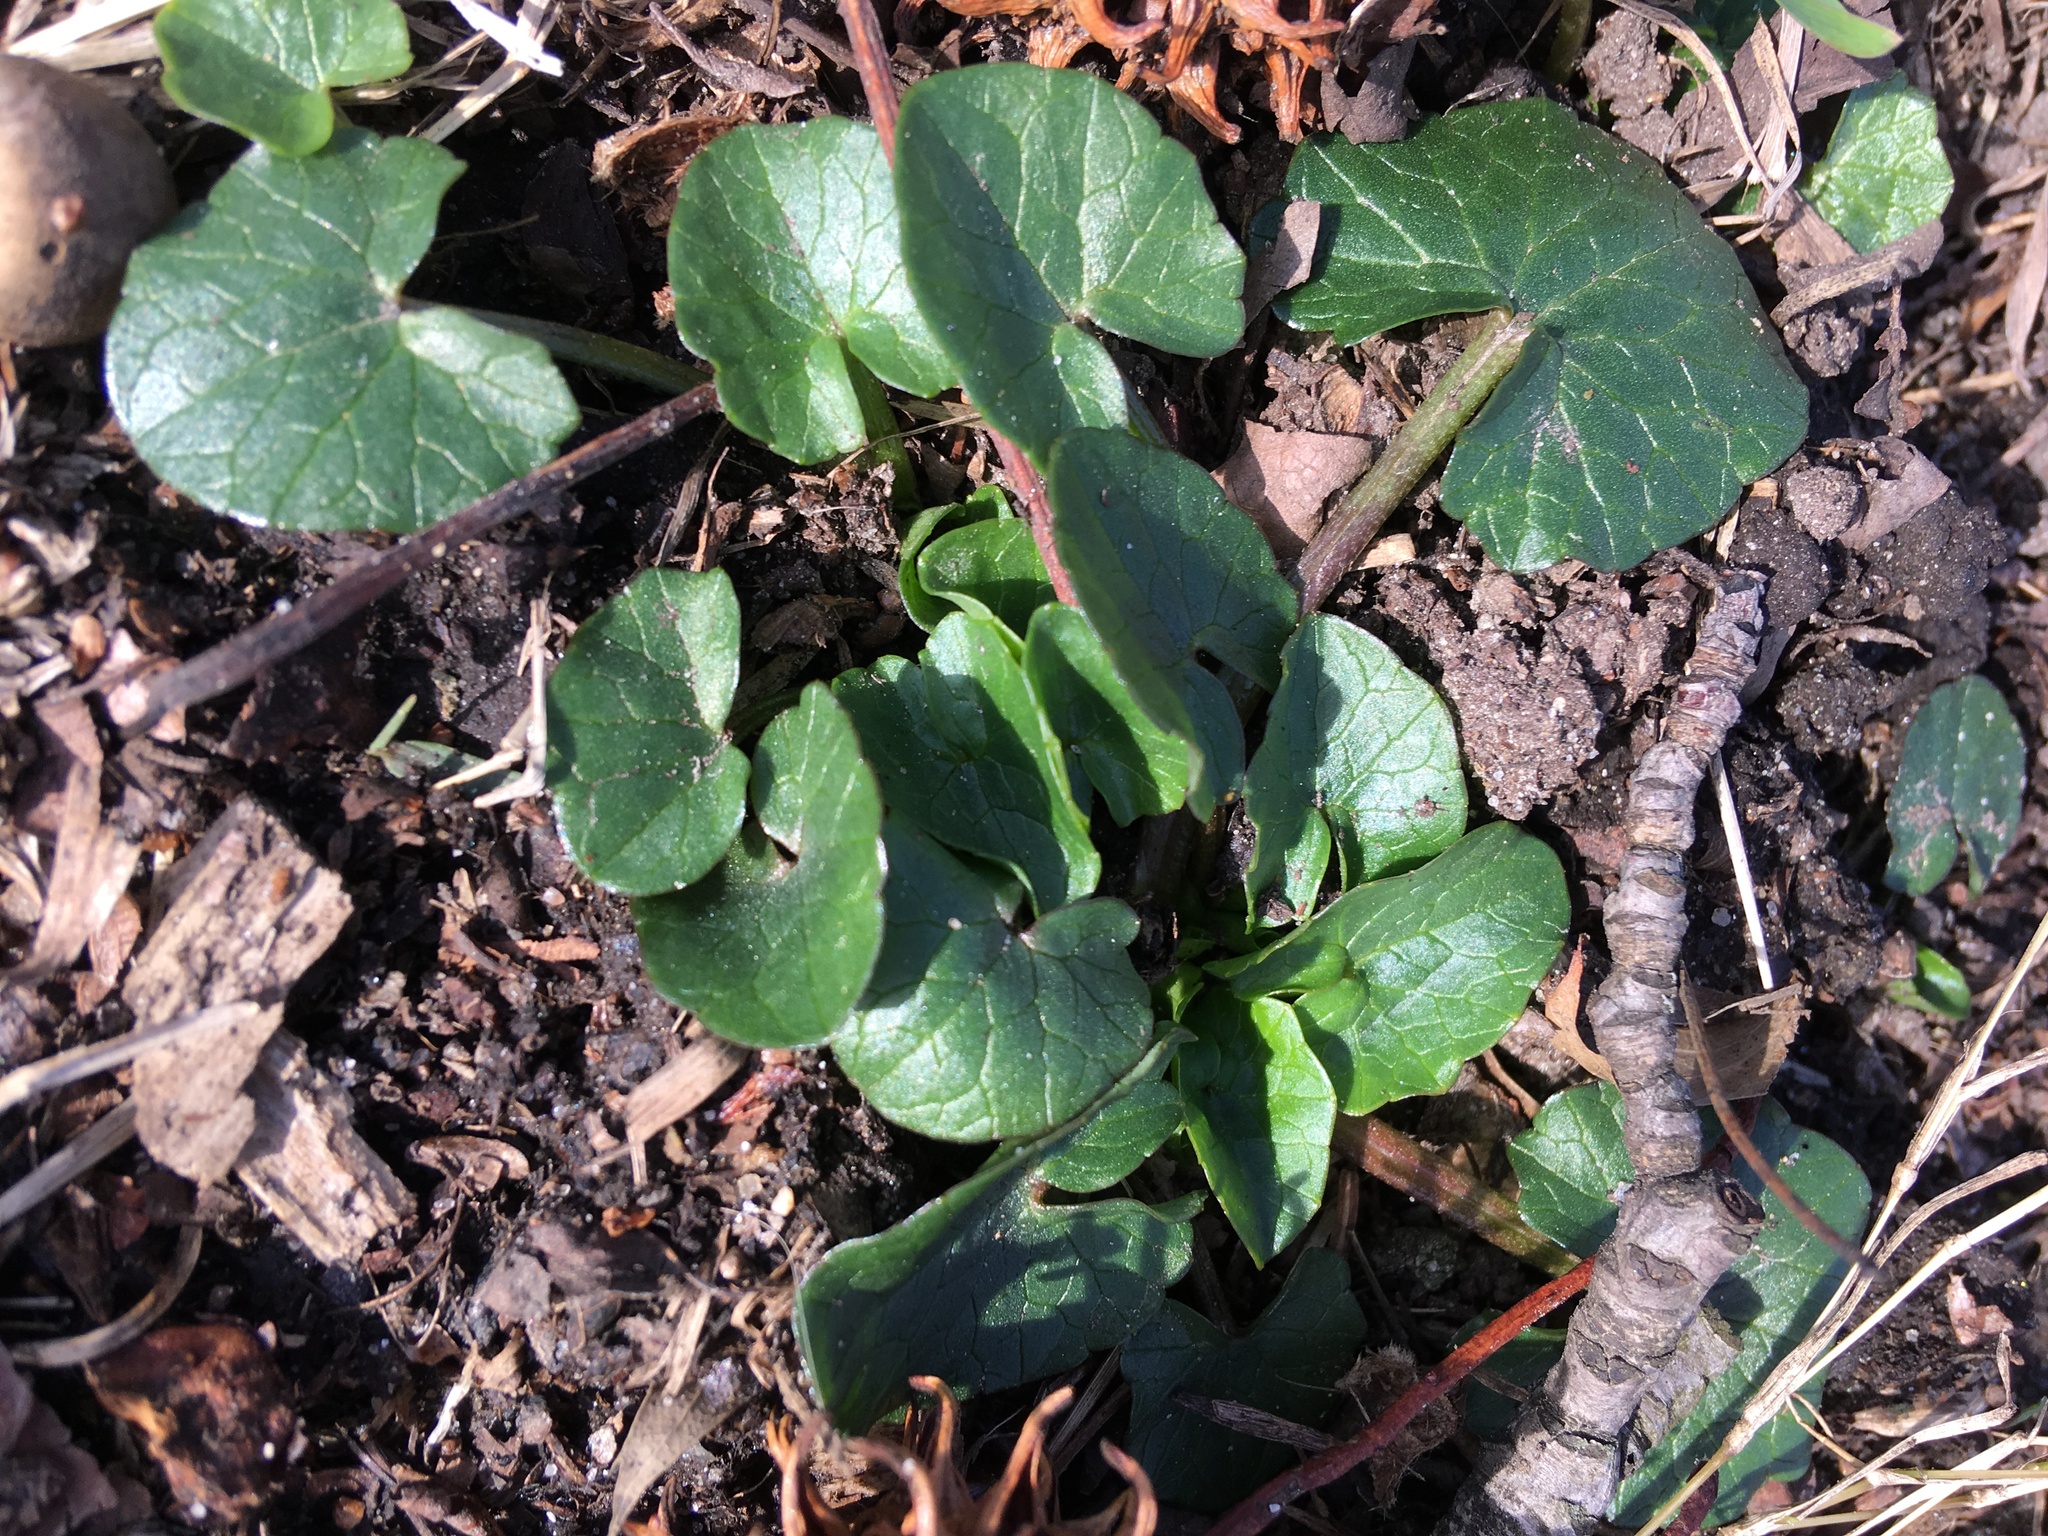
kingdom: Plantae
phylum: Tracheophyta
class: Magnoliopsida
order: Ranunculales
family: Ranunculaceae
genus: Ficaria
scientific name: Ficaria verna
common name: Lesser celandine
